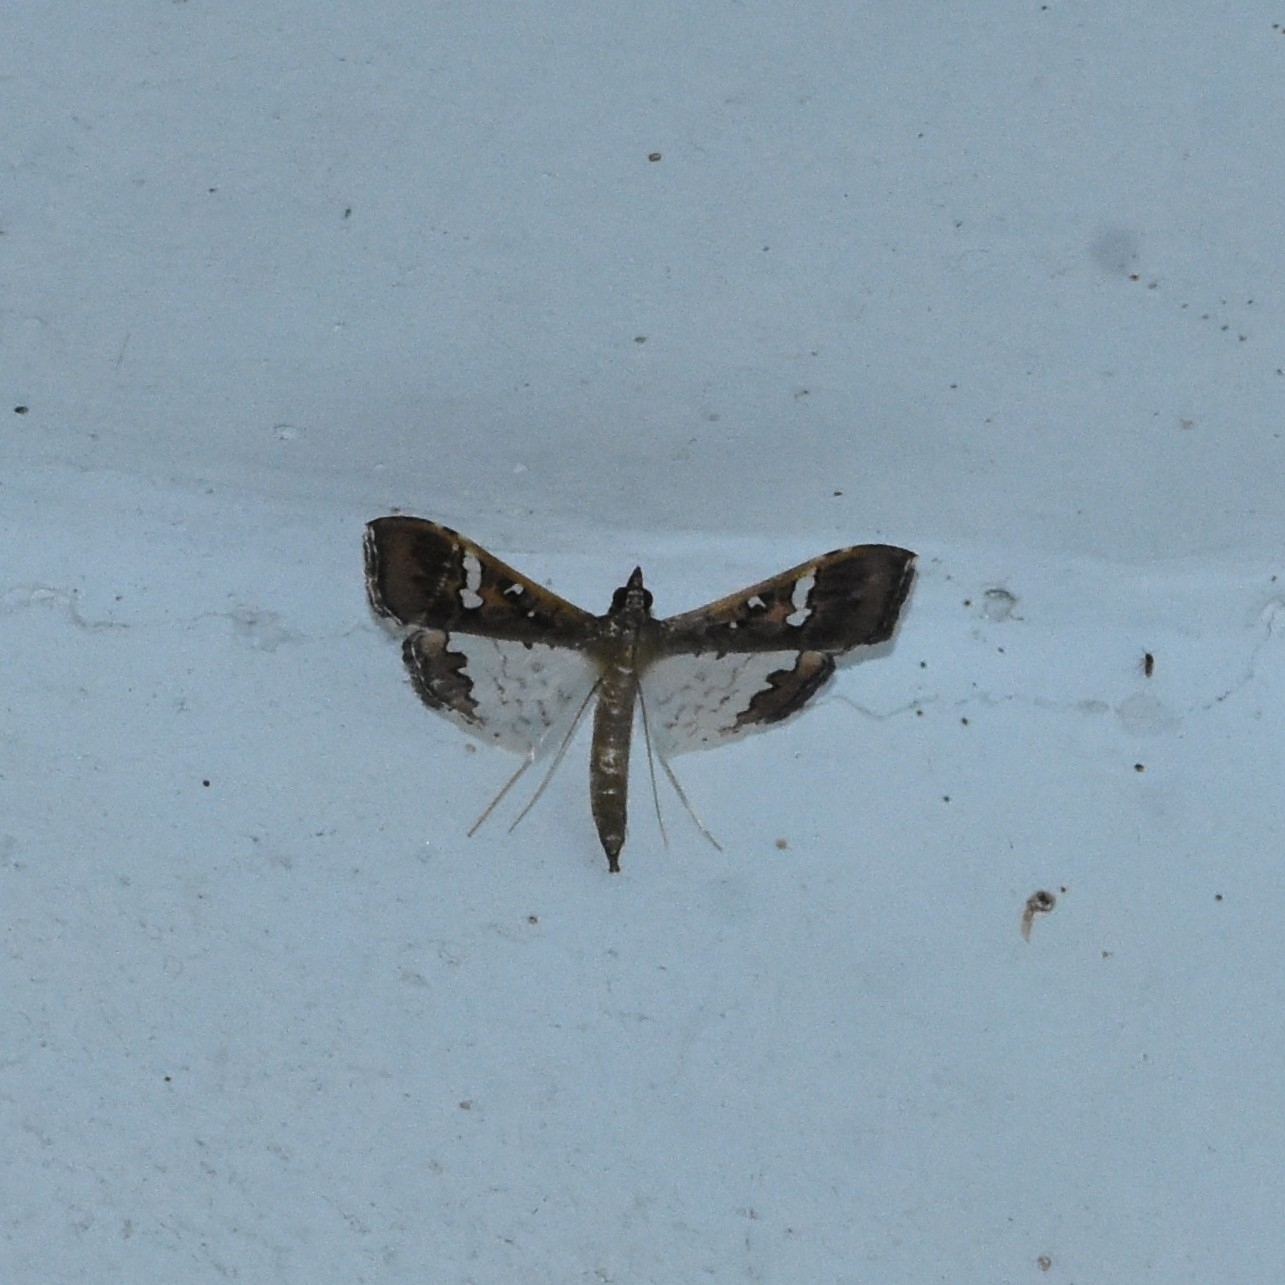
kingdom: Animalia
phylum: Arthropoda
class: Insecta
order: Lepidoptera
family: Crambidae
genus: Maruca
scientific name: Maruca vitrata
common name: Maruca pod borer
